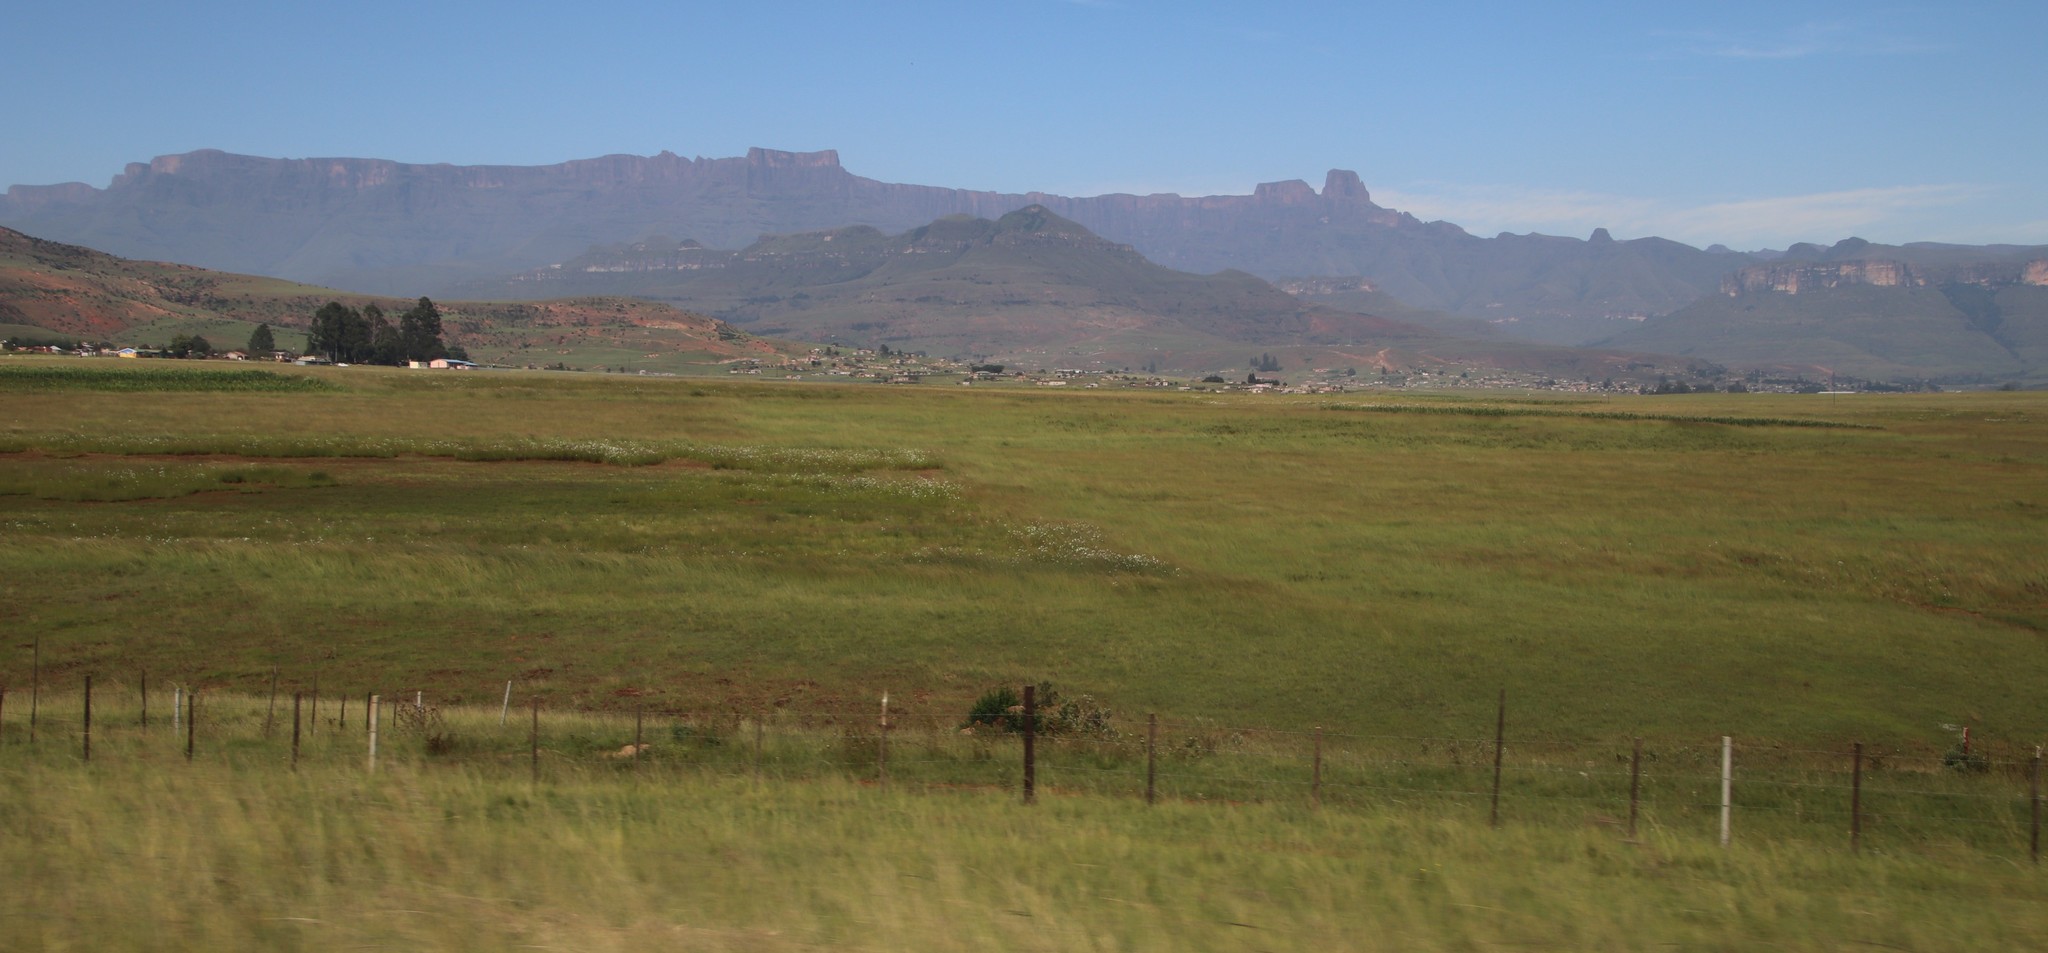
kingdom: Plantae
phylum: Tracheophyta
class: Magnoliopsida
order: Asterales
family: Asteraceae
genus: Cosmos
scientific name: Cosmos bipinnatus
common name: Garden cosmos
